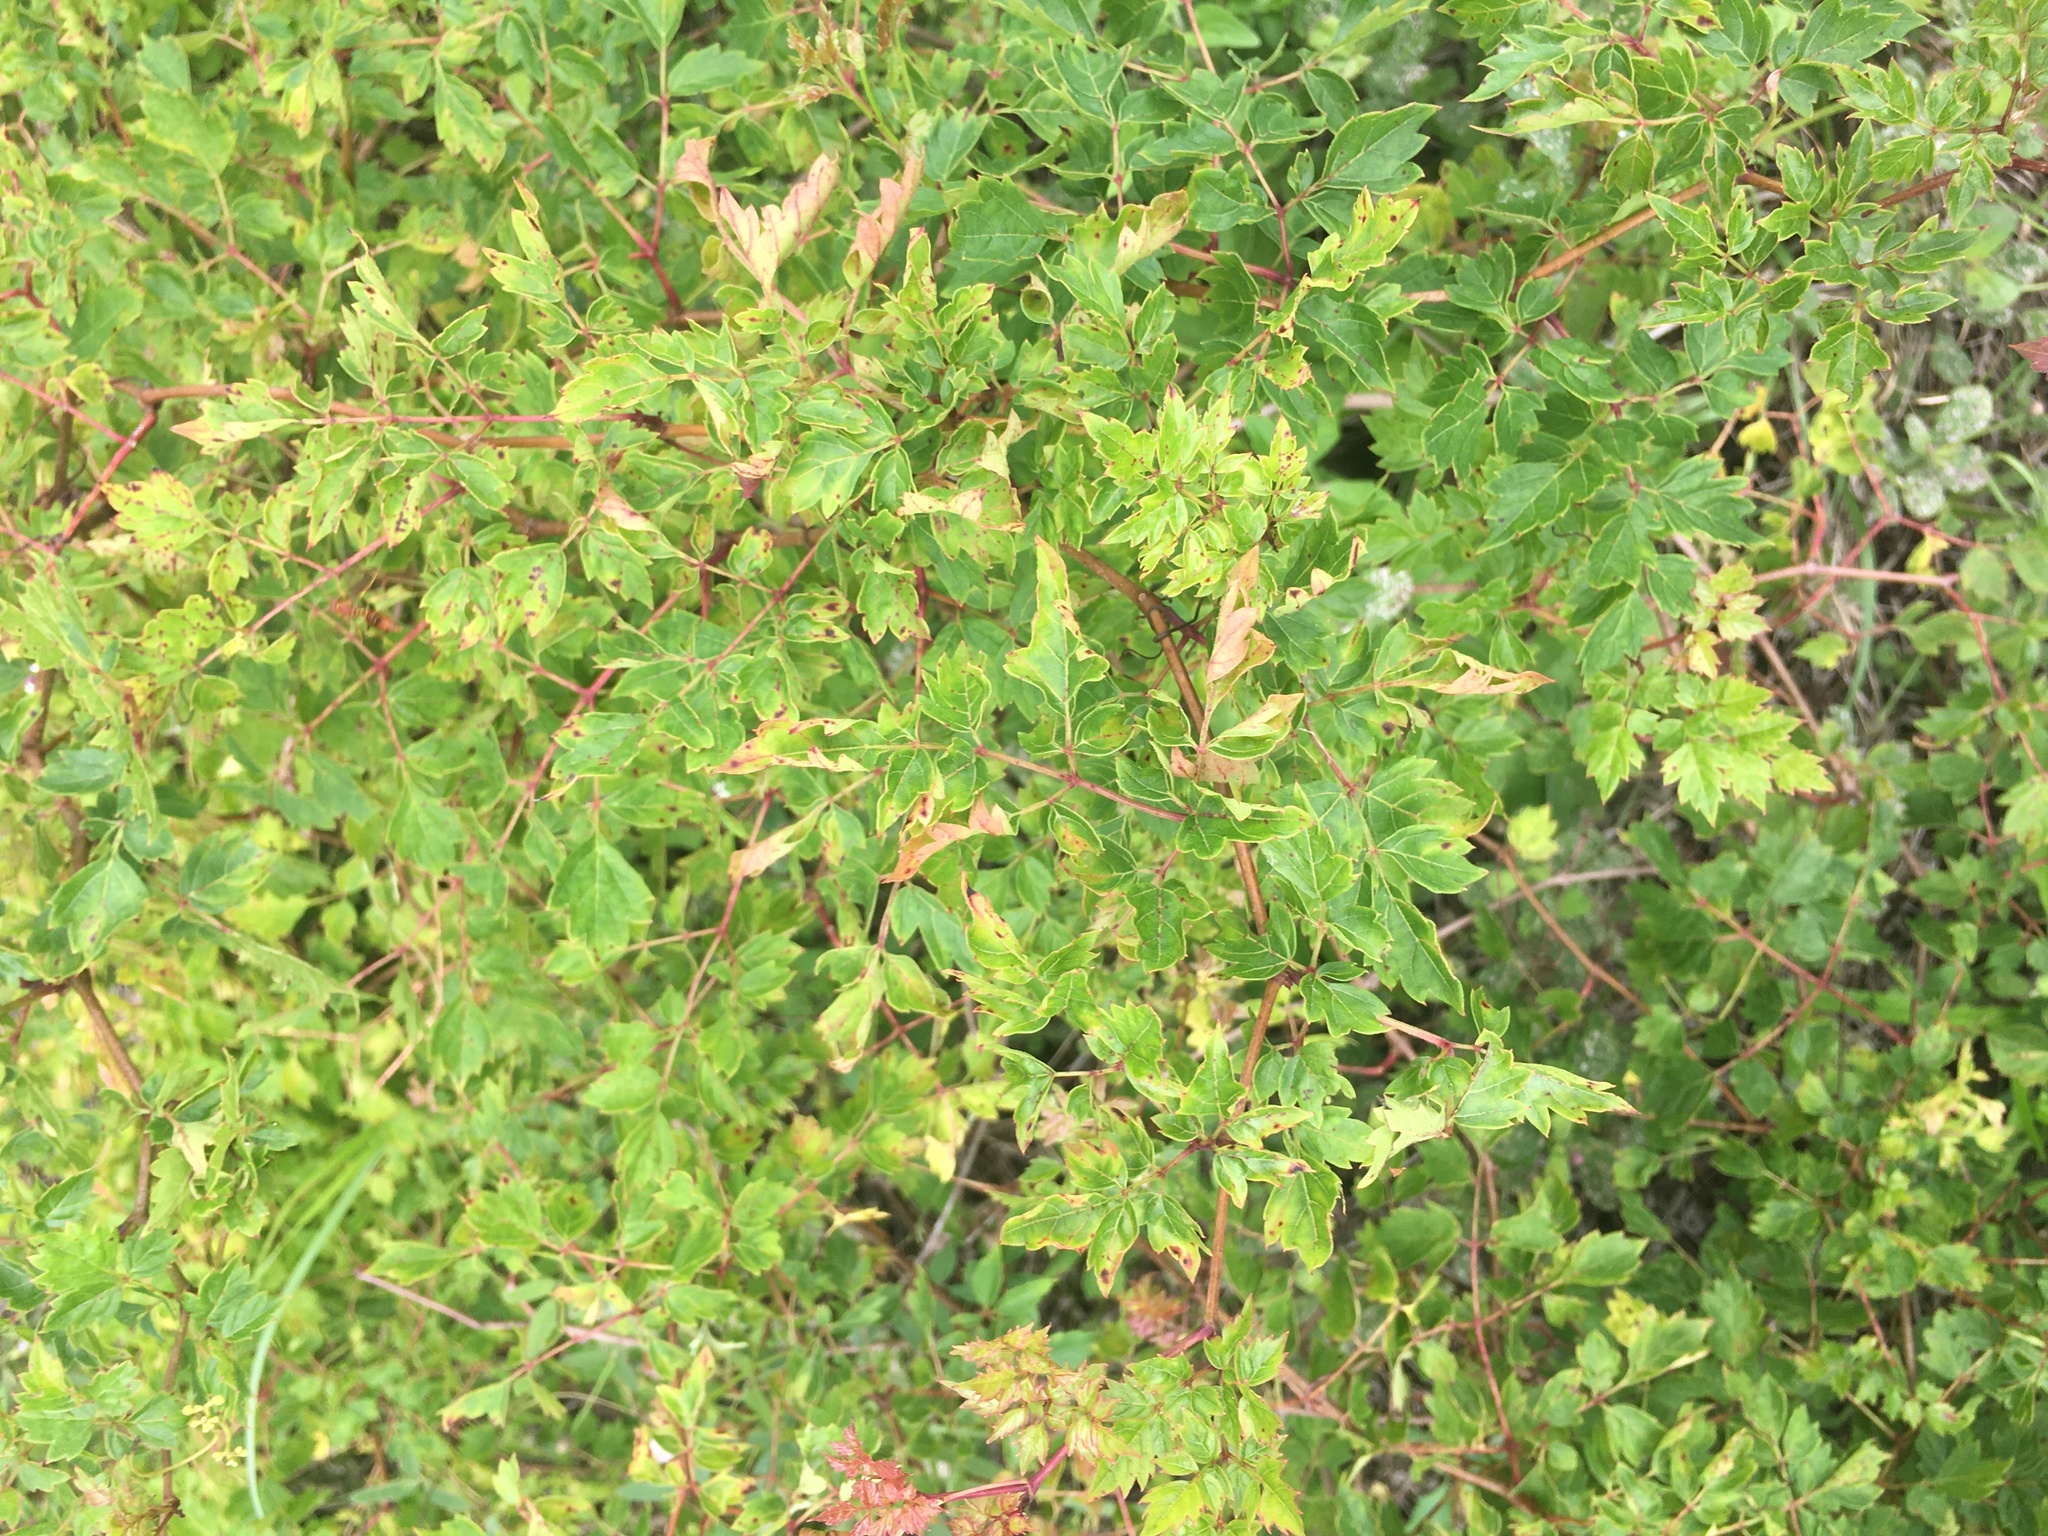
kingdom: Plantae
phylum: Tracheophyta
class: Magnoliopsida
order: Vitales
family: Vitaceae
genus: Nekemias
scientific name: Nekemias arborea
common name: Peppervine
